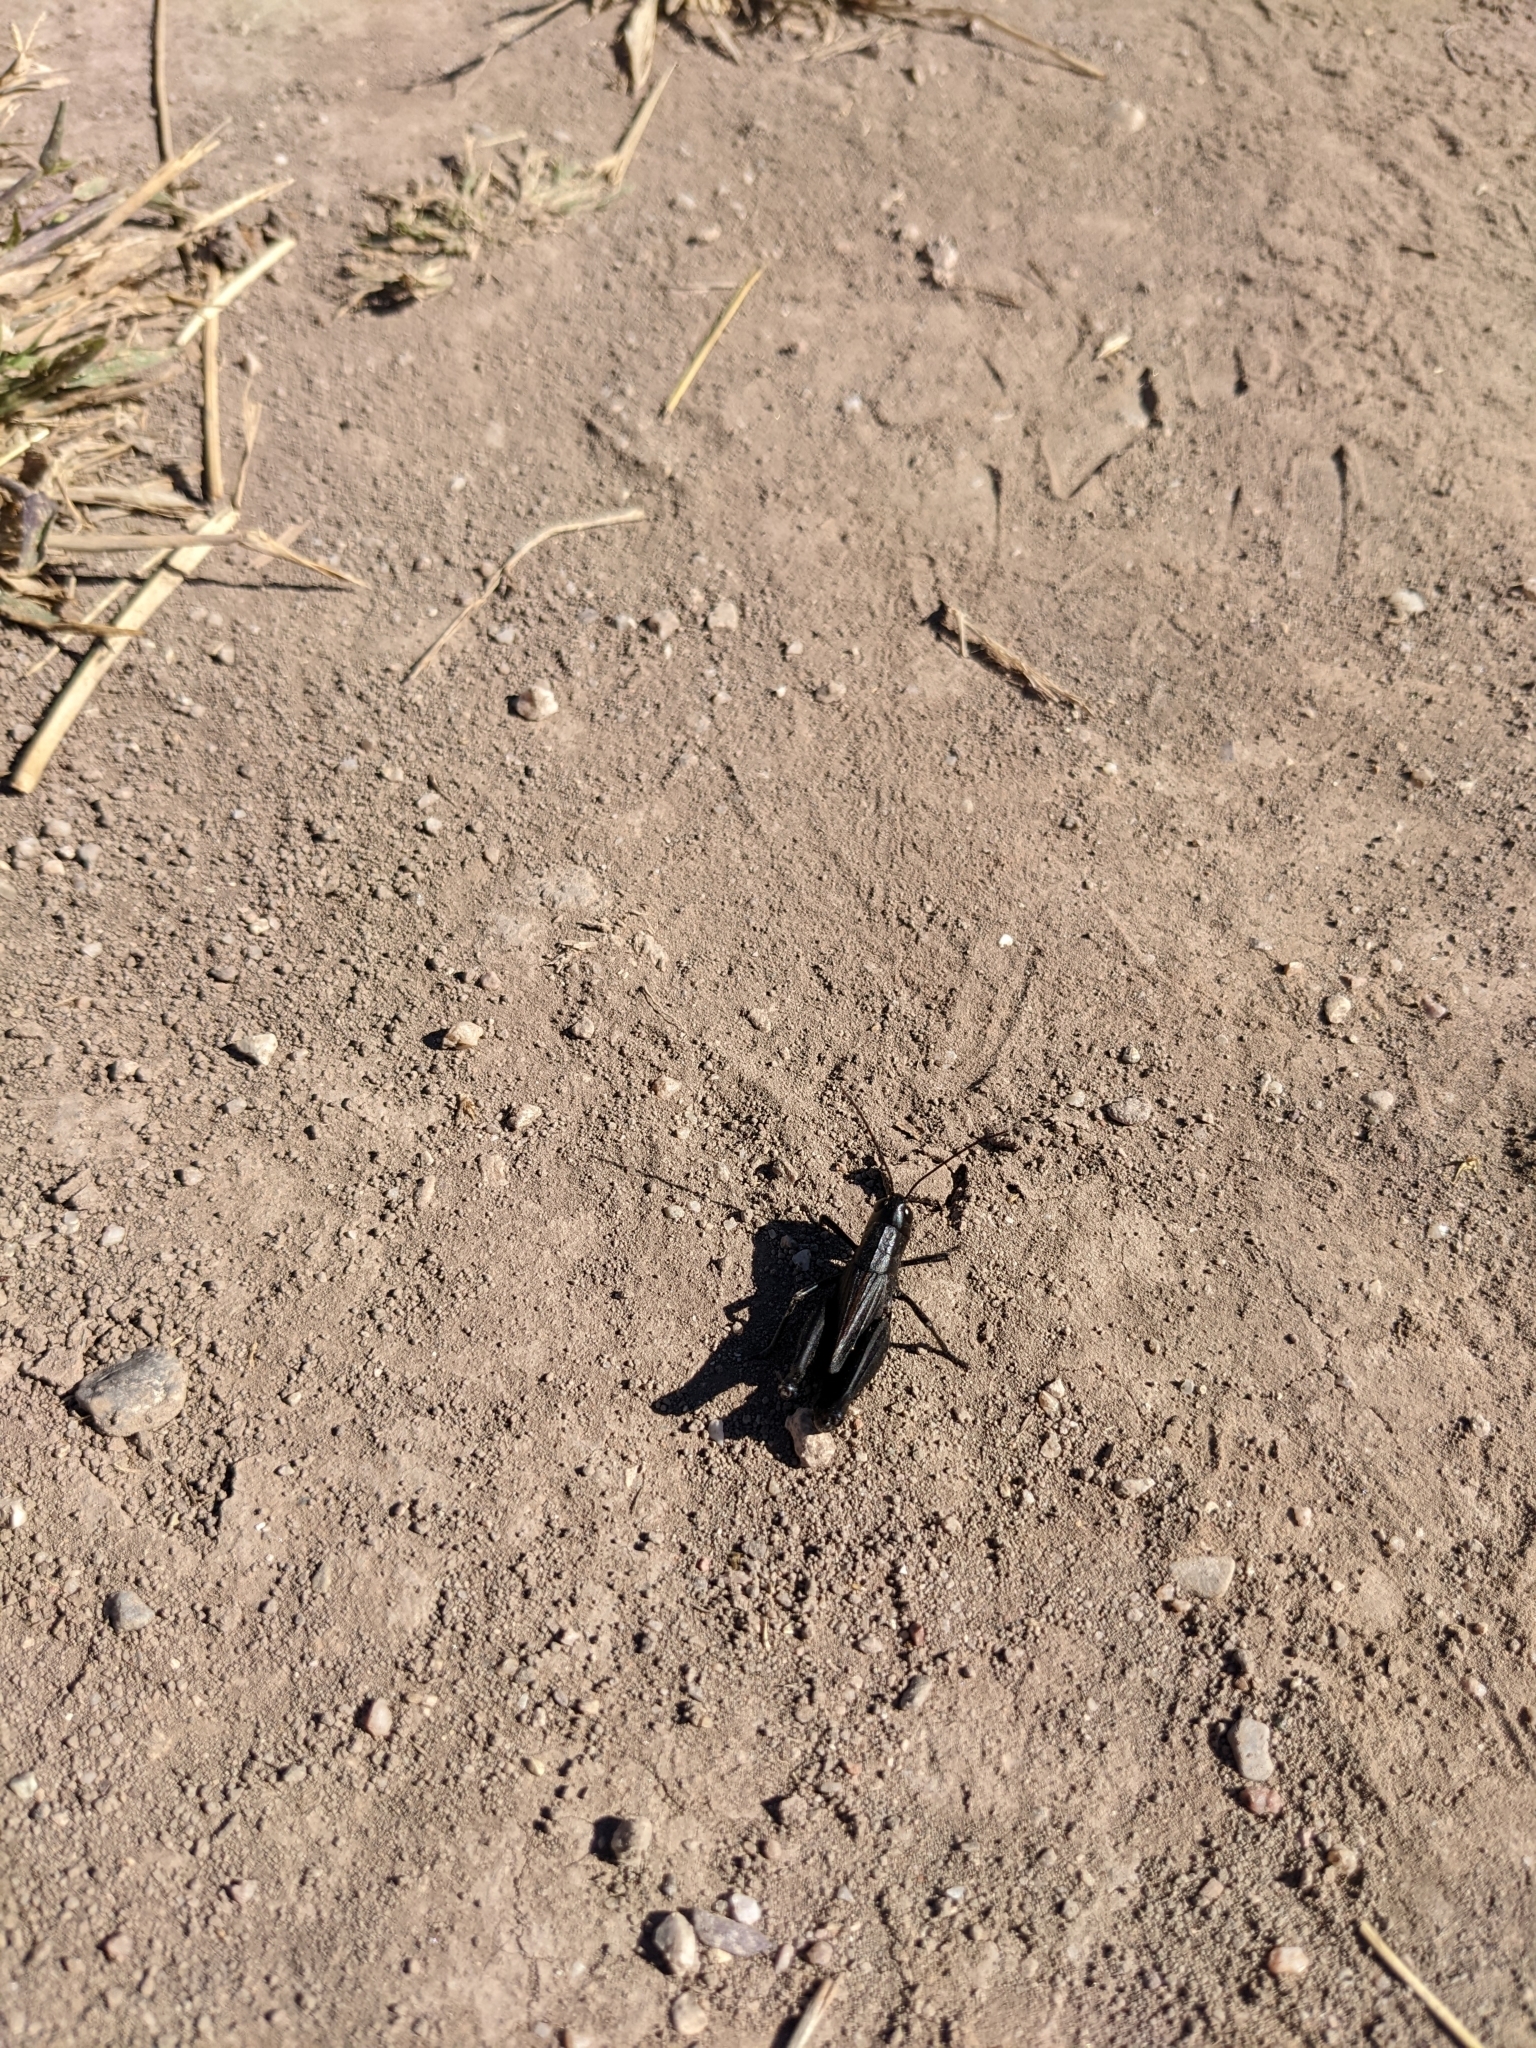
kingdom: Animalia
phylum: Arthropoda
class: Insecta
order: Orthoptera
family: Acrididae
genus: Boopedon
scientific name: Boopedon nubilum
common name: Ebony grasshopper
